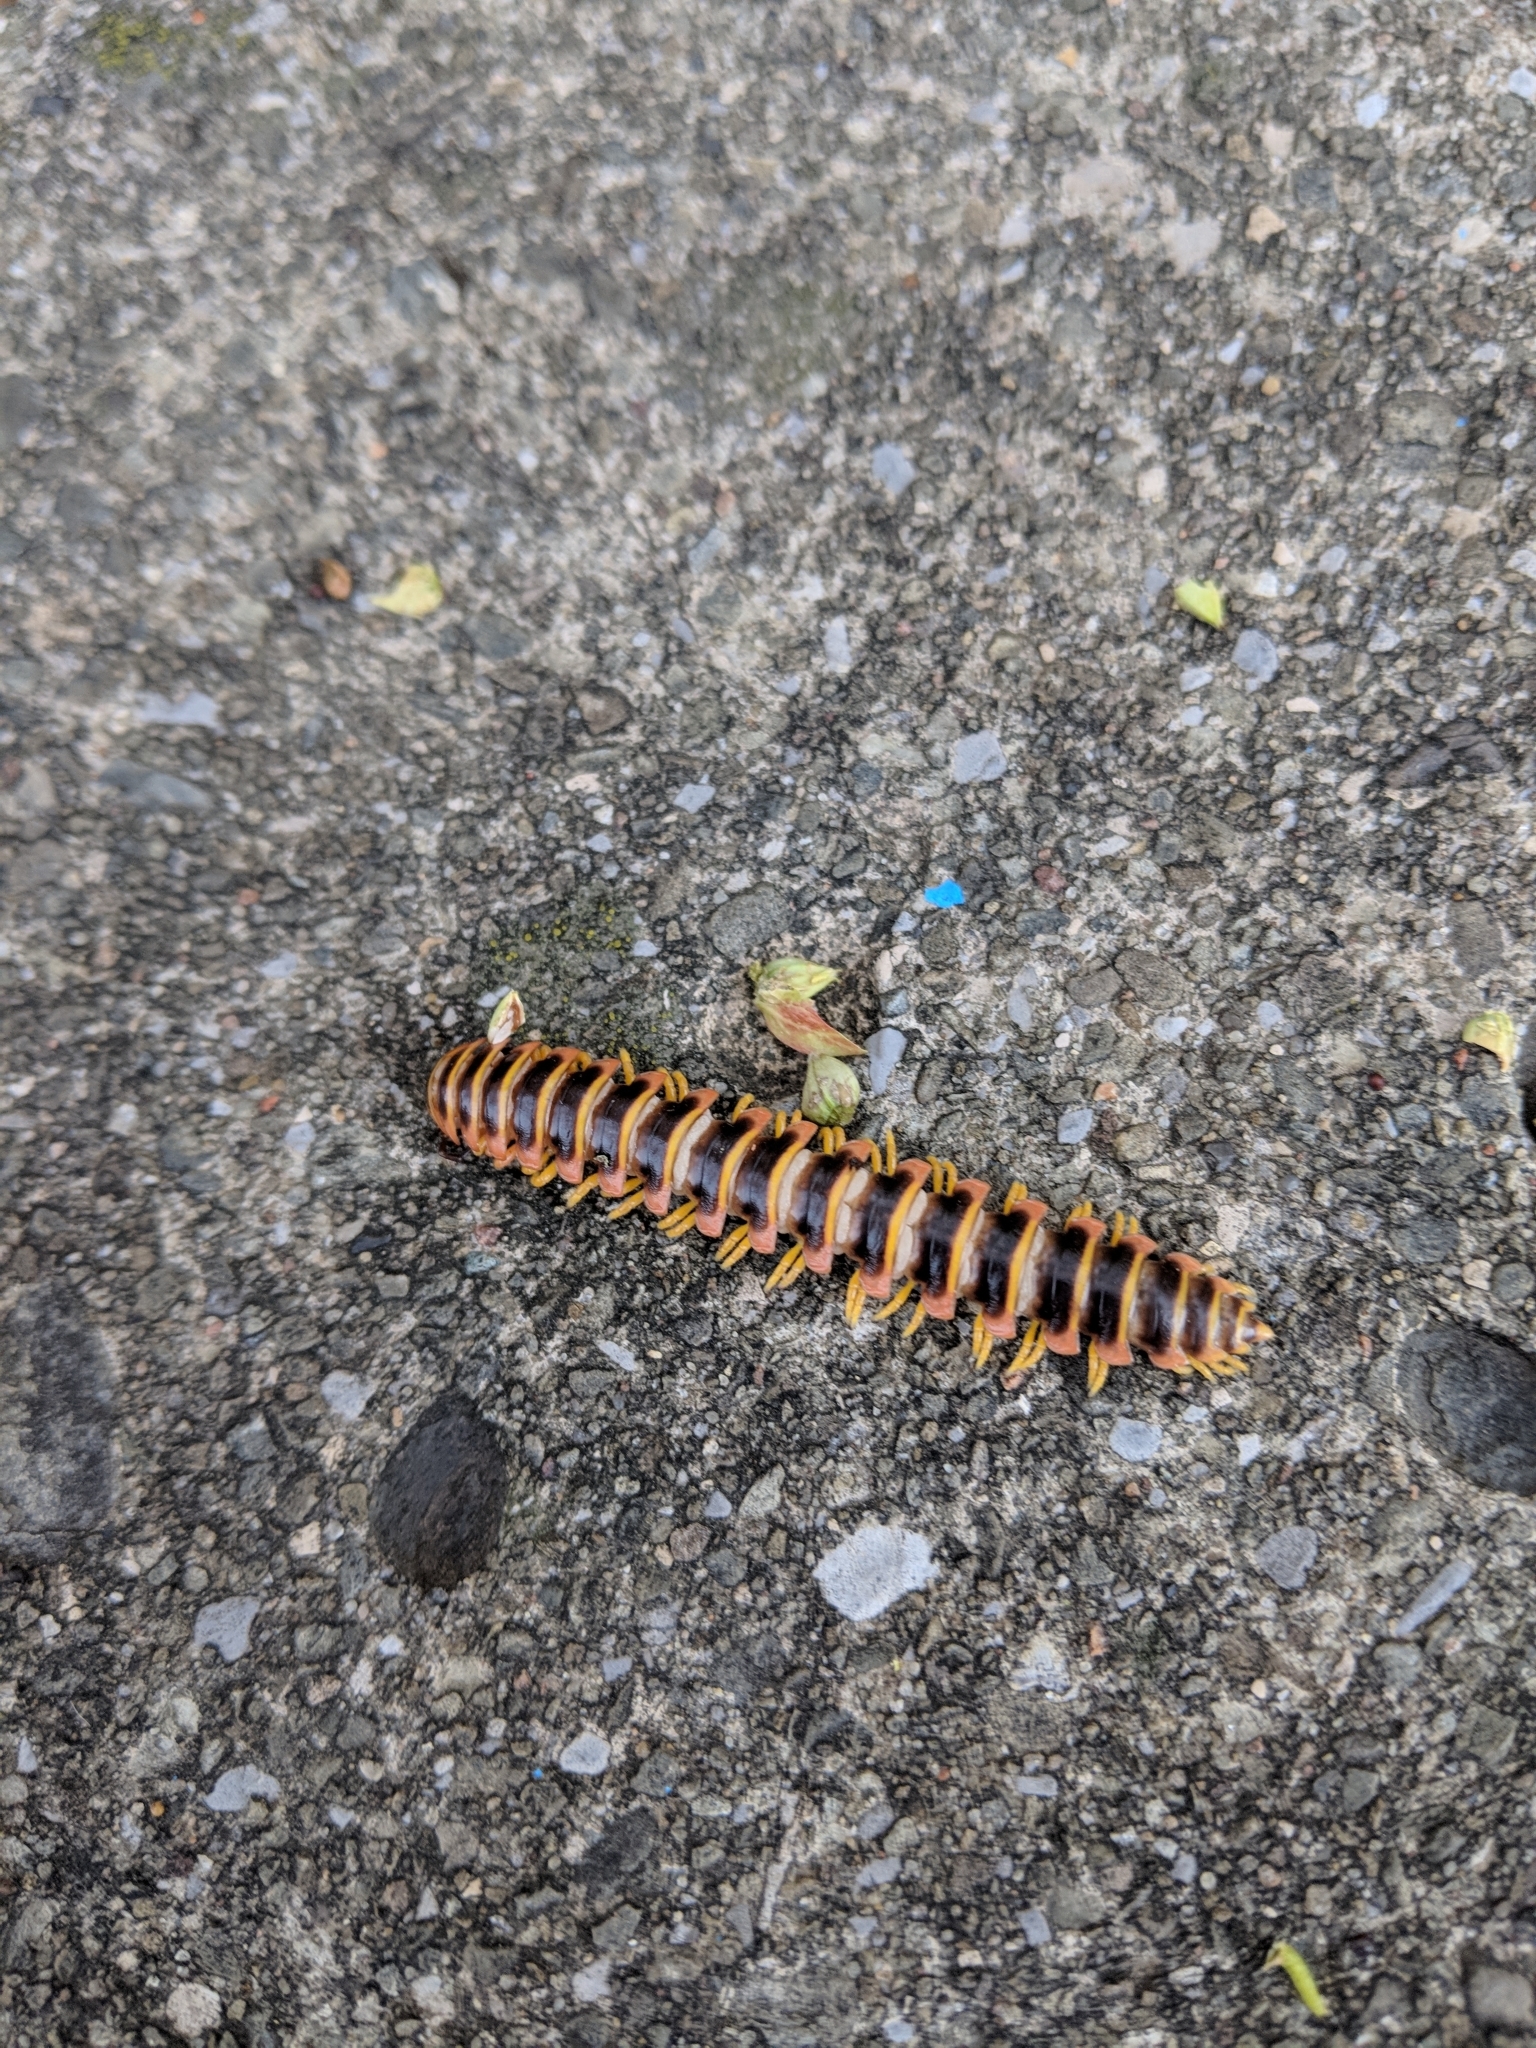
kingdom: Animalia
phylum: Arthropoda
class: Diplopoda
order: Polydesmida
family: Xystodesmidae
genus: Apheloria
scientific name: Apheloria virginiensis
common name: Black-and-gold flat millipede
